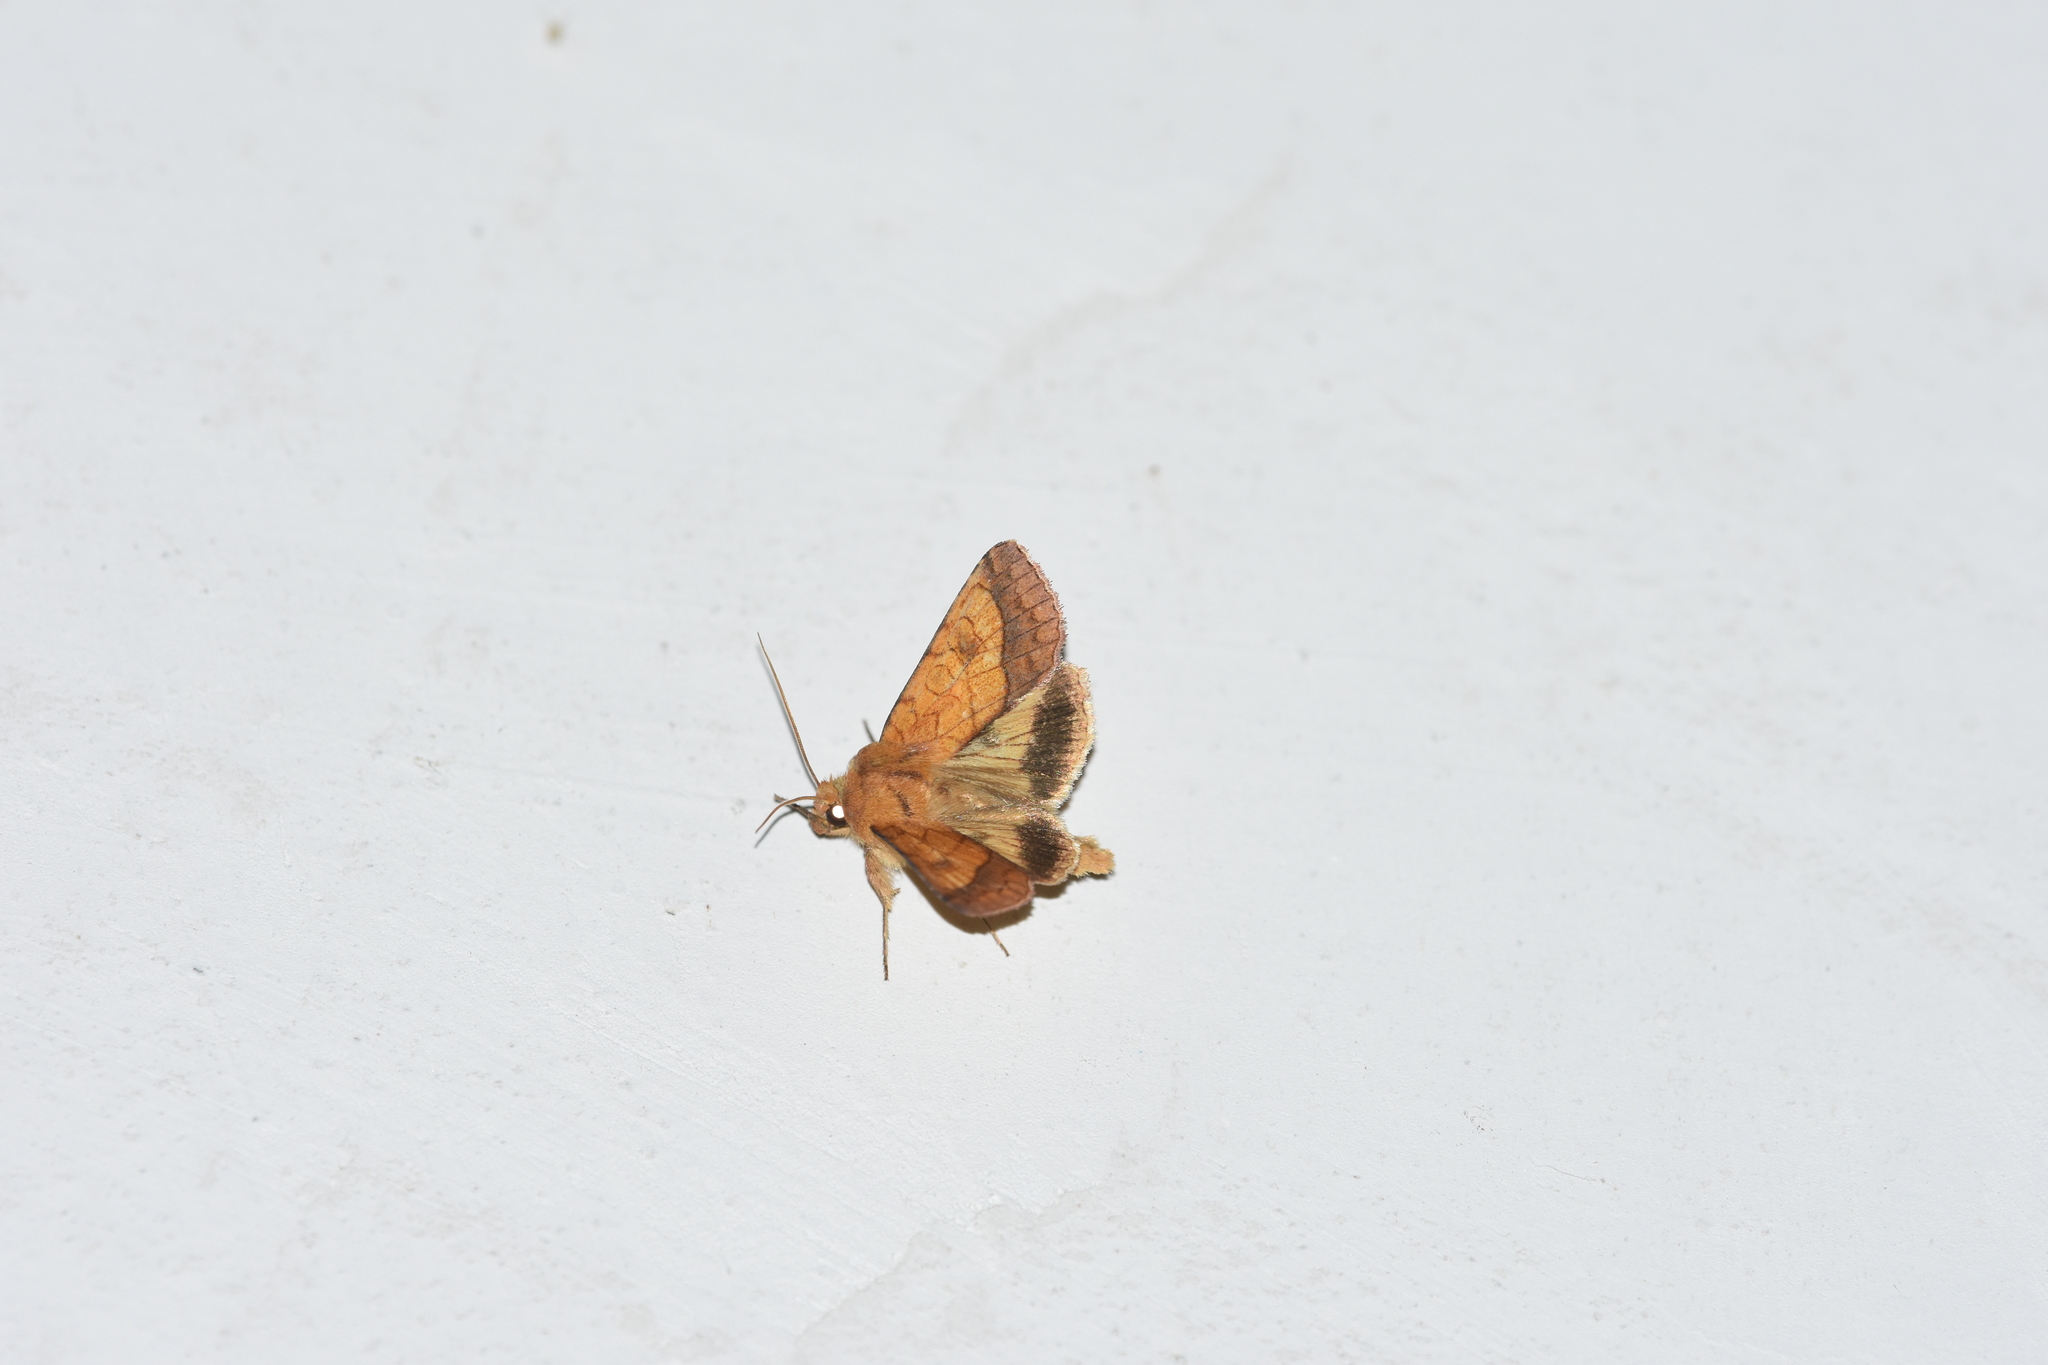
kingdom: Animalia
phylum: Arthropoda
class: Insecta
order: Lepidoptera
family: Noctuidae
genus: Pyrrhia
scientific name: Pyrrhia umbra
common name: Bordered sallow
